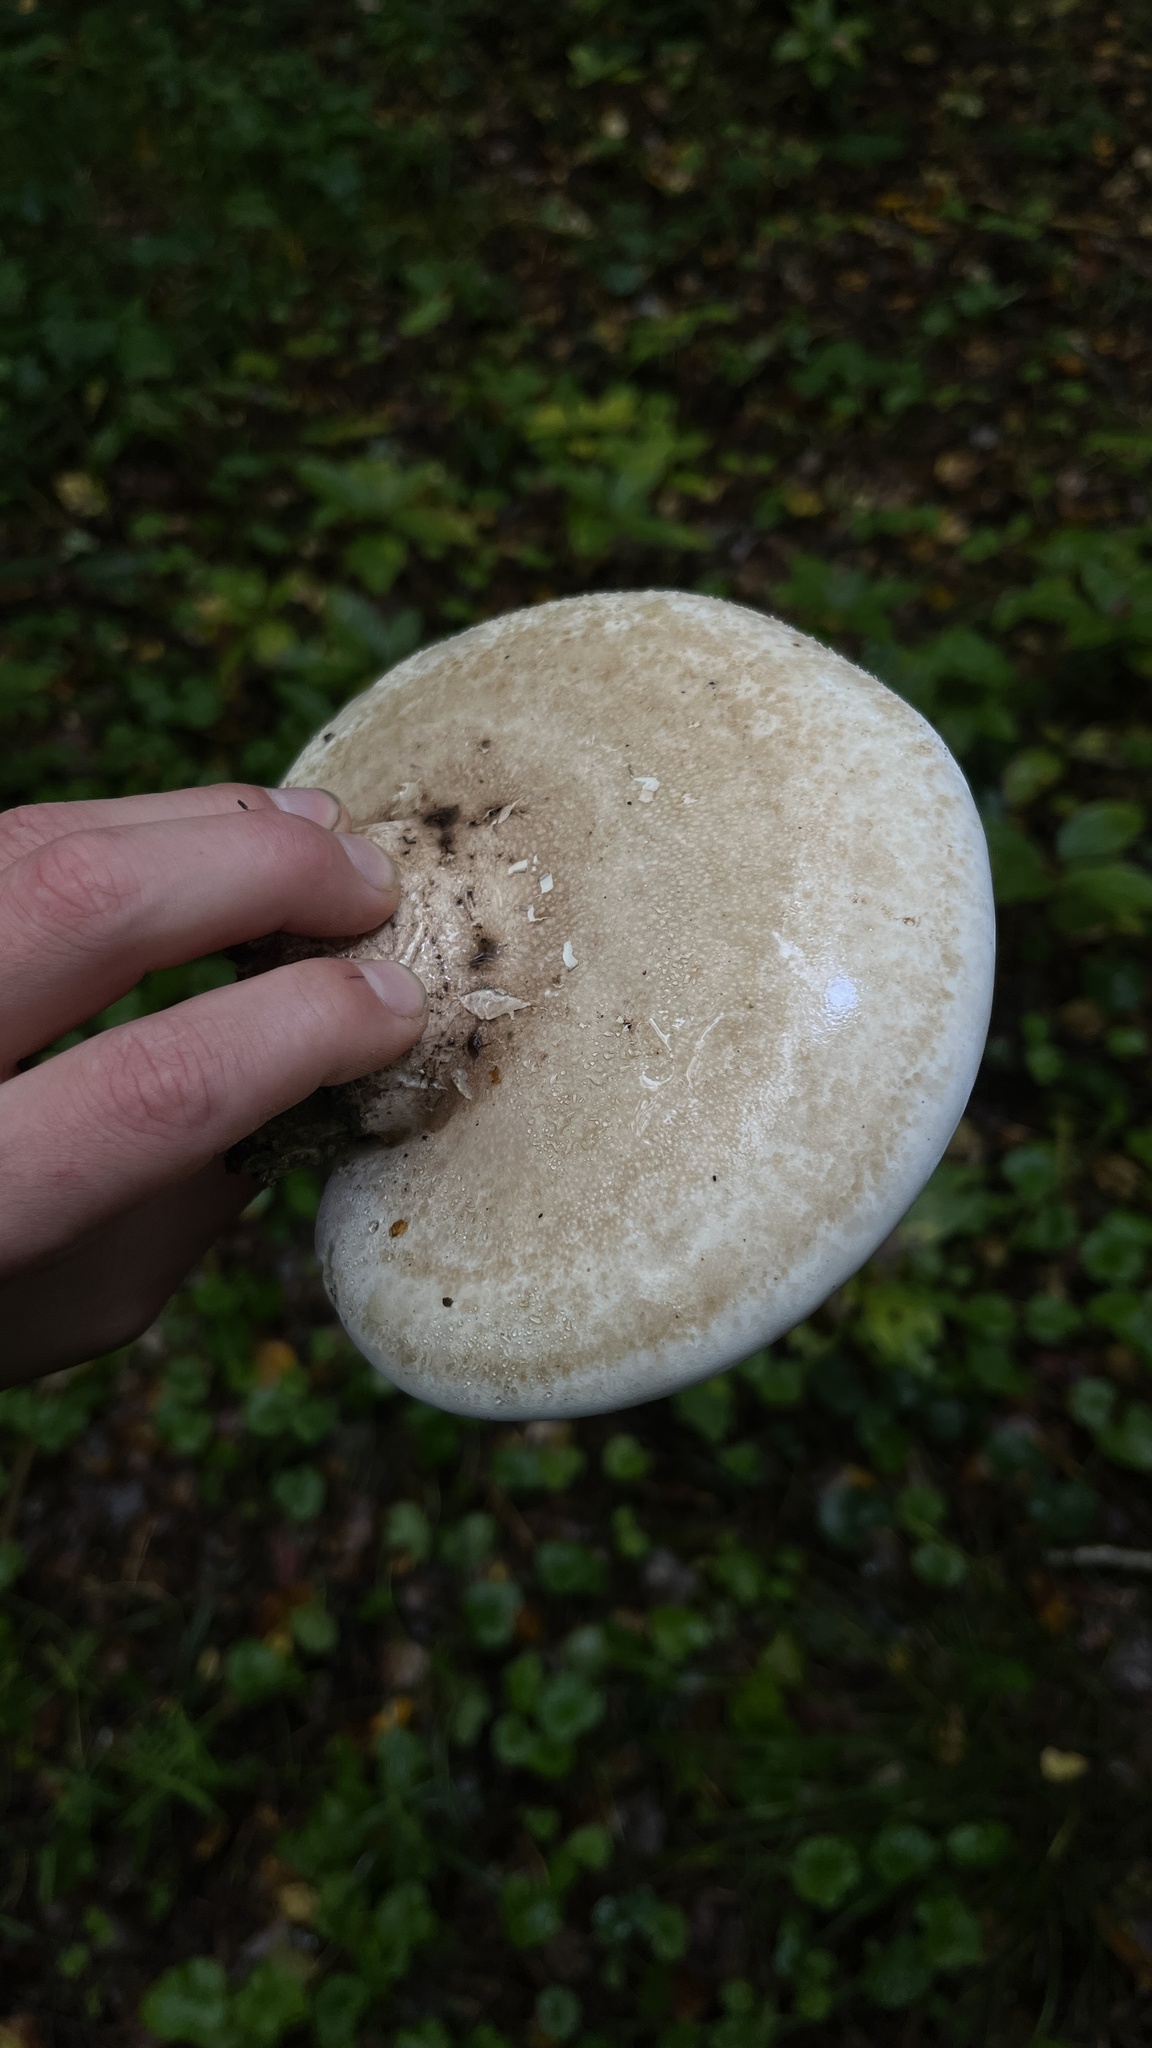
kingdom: Fungi
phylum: Basidiomycota
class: Agaricomycetes
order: Polyporales
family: Fomitopsidaceae
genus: Fomitopsis
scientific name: Fomitopsis betulina
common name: Birch polypore
